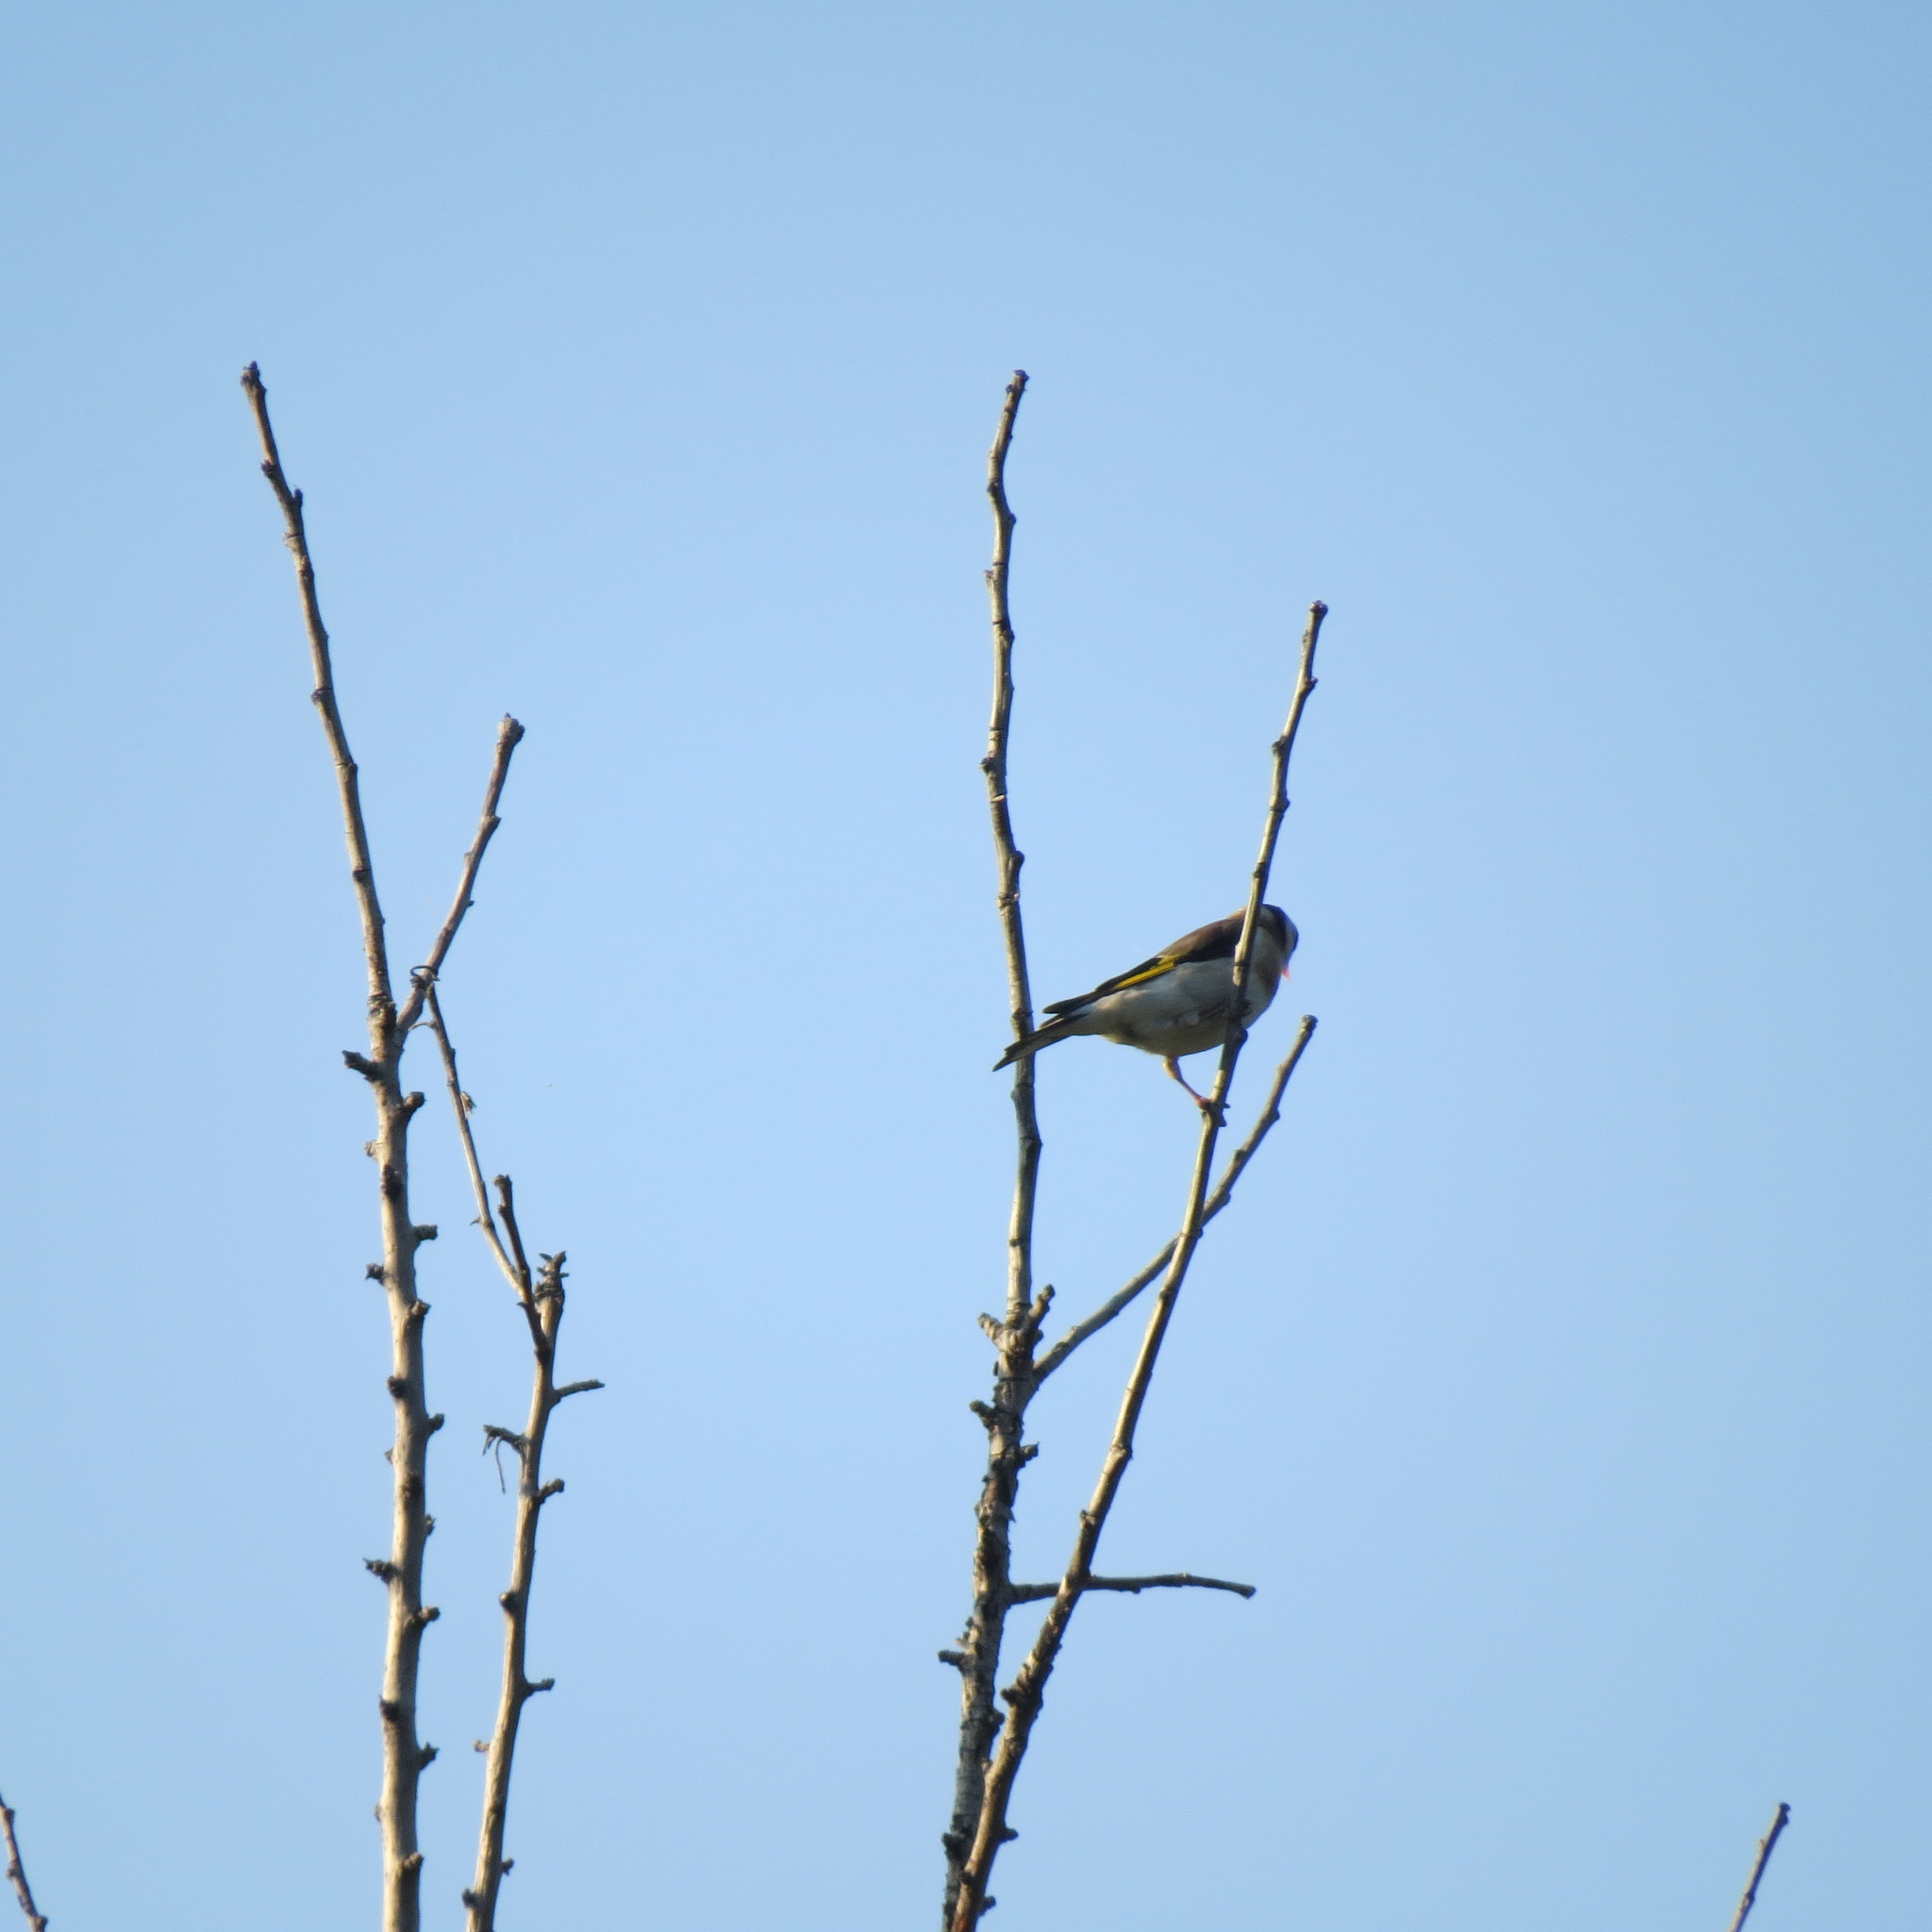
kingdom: Animalia
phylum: Chordata
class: Aves
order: Passeriformes
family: Fringillidae
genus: Carduelis
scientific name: Carduelis carduelis
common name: European goldfinch
